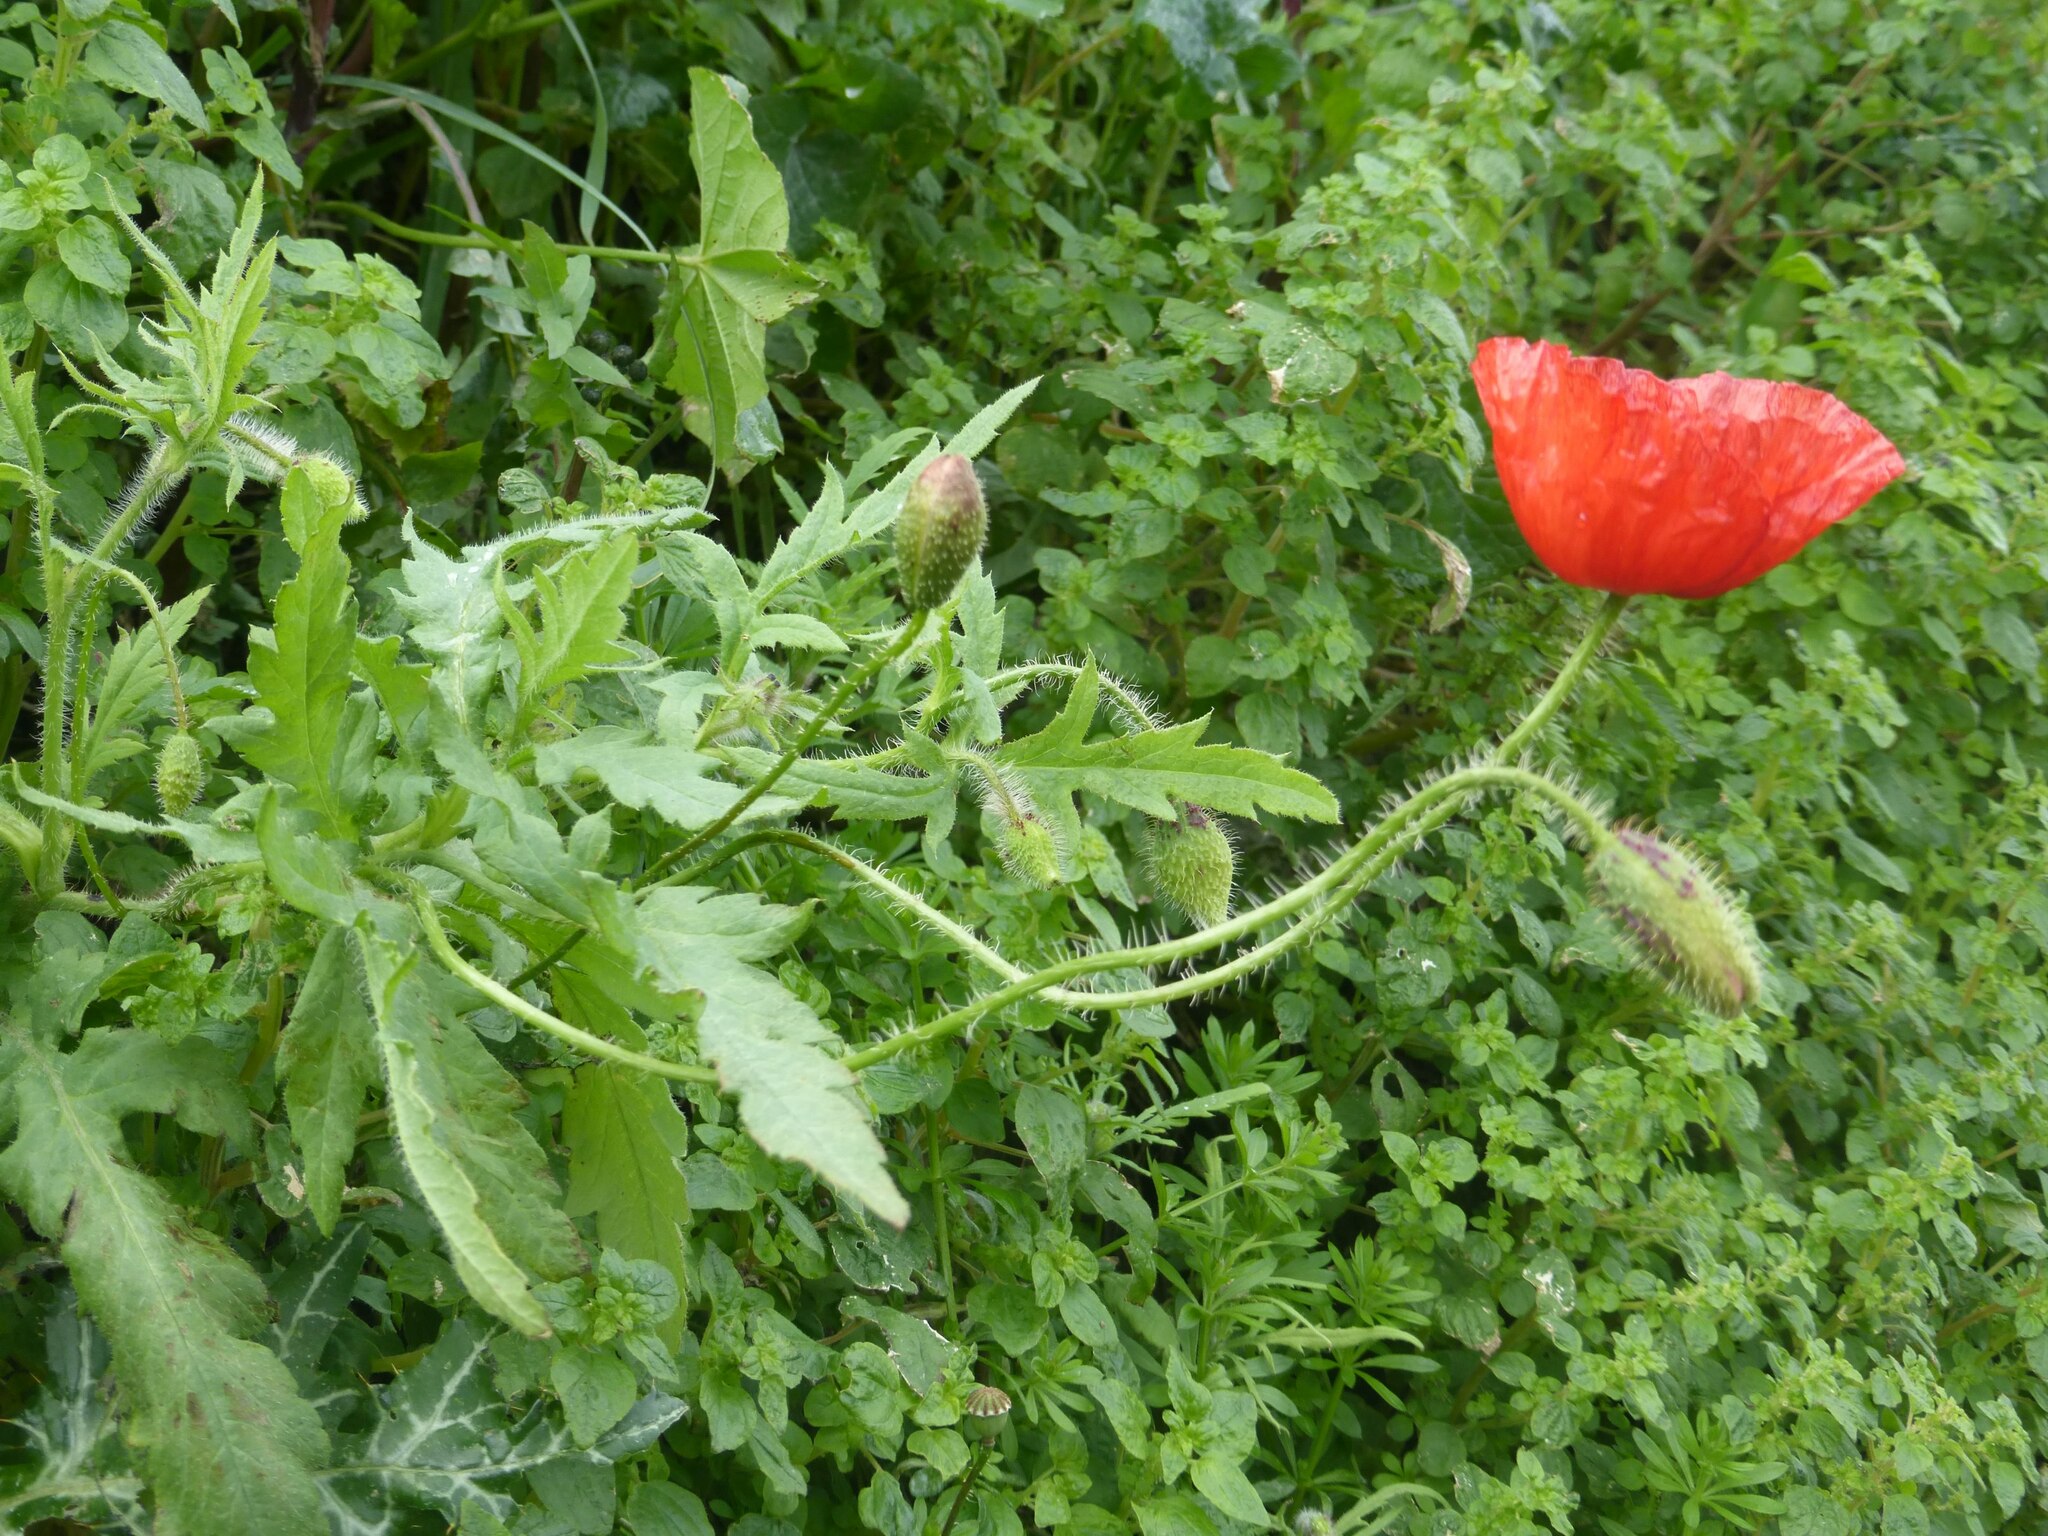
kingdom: Plantae
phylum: Tracheophyta
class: Magnoliopsida
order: Ranunculales
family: Papaveraceae
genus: Papaver
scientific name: Papaver rhoeas
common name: Corn poppy
